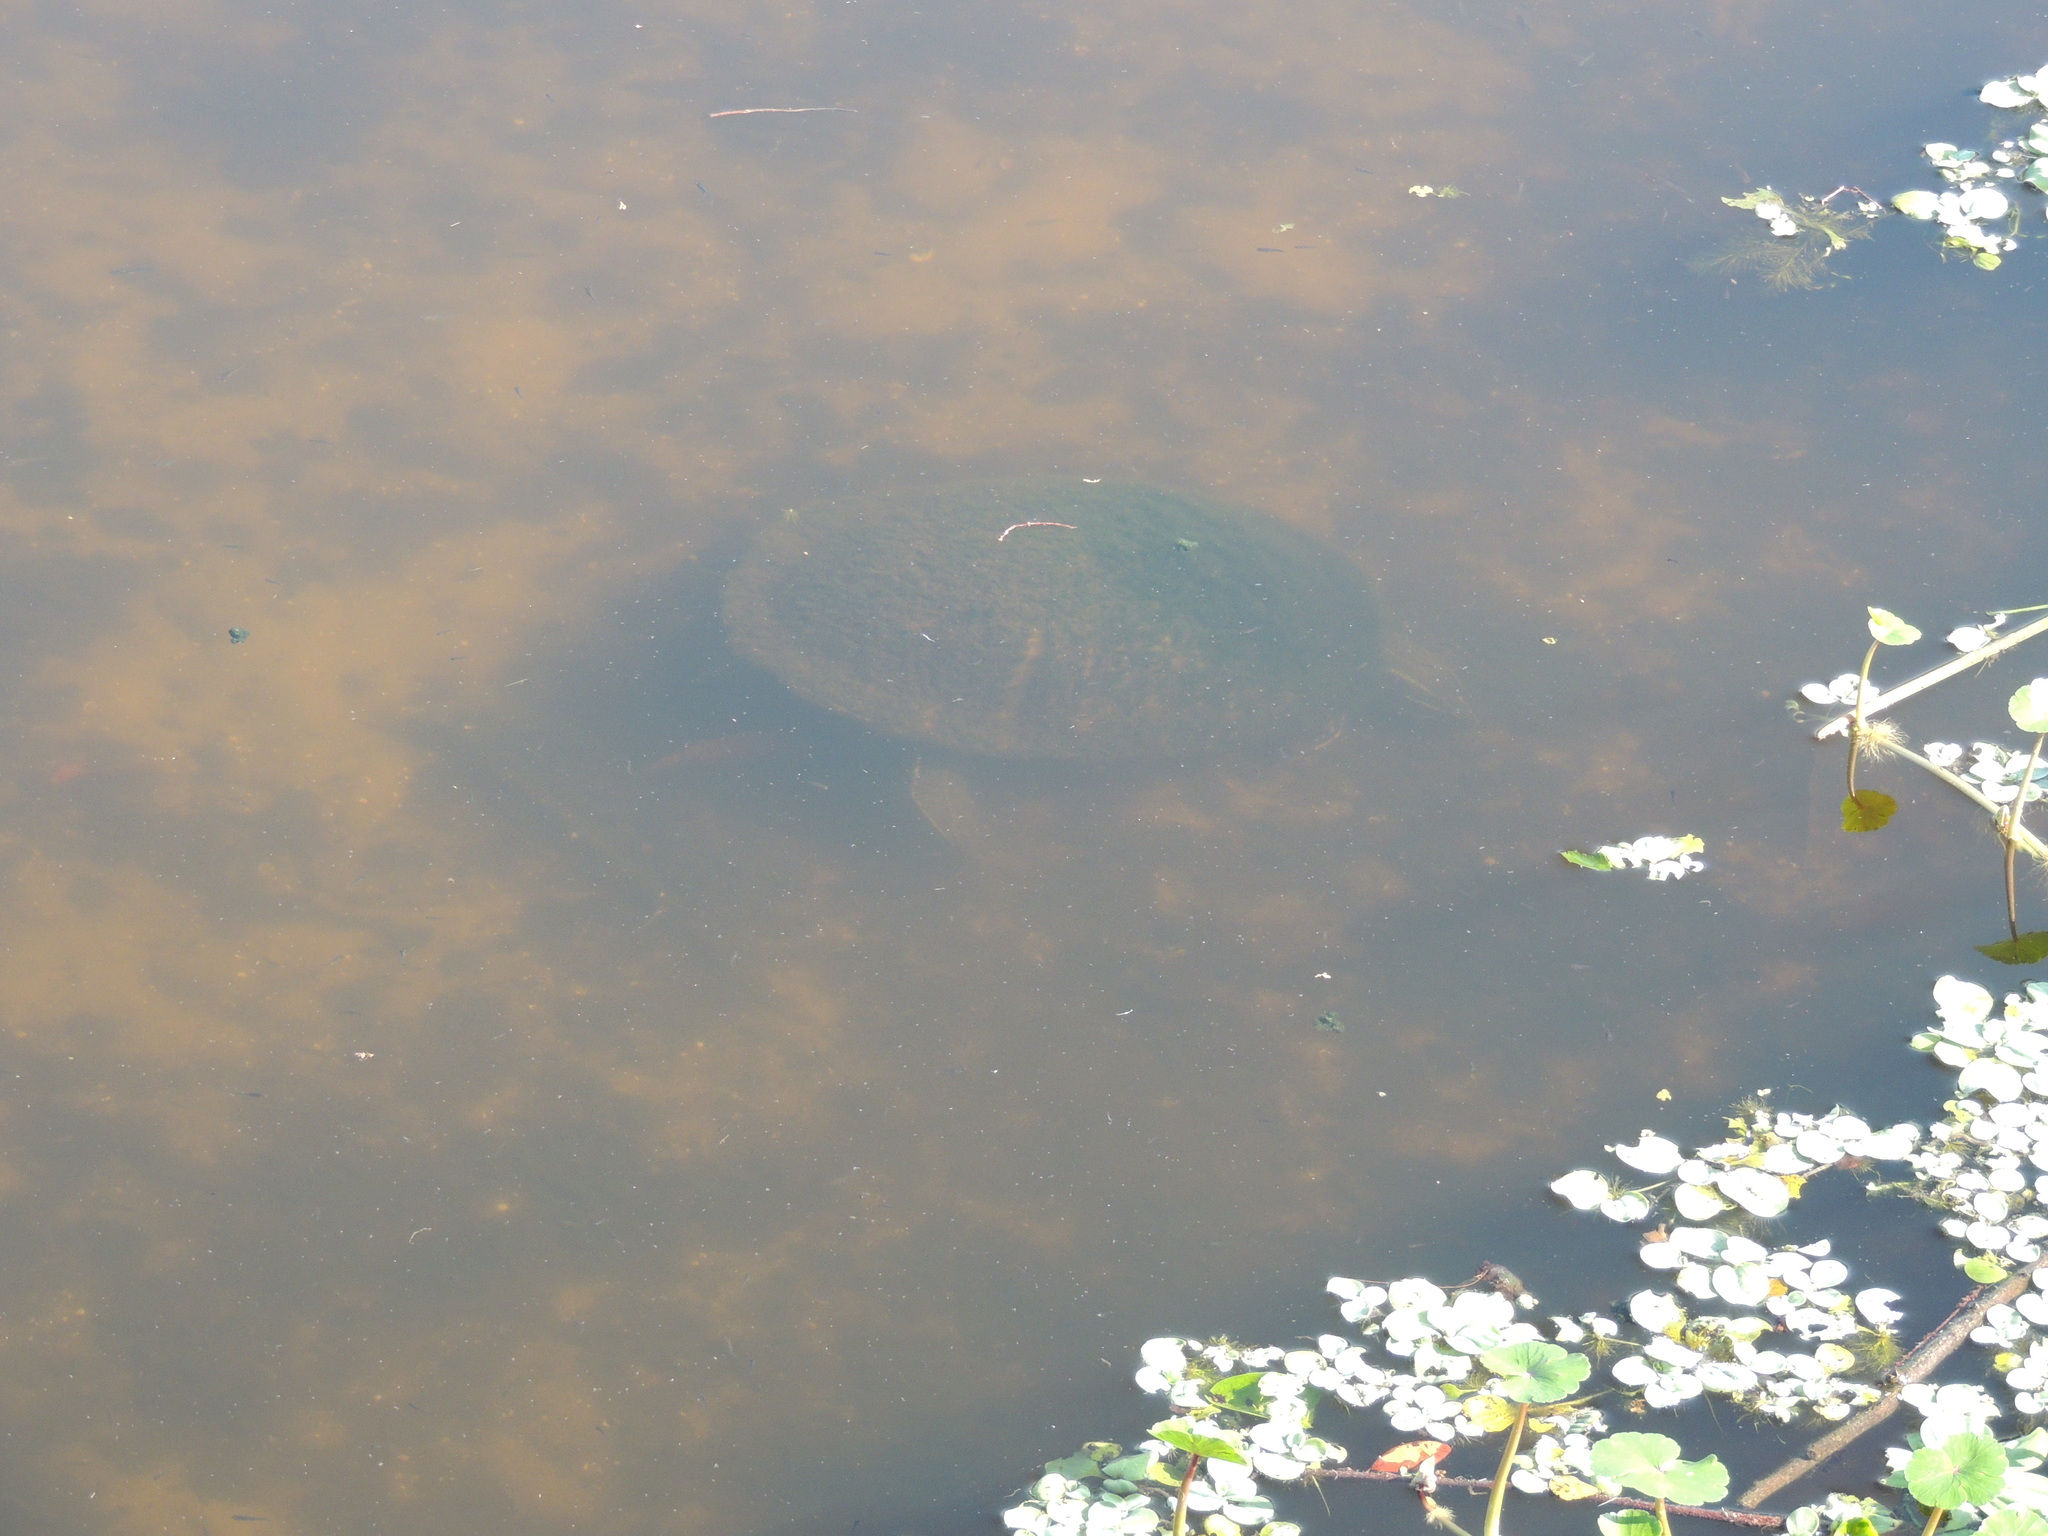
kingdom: Animalia
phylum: Chordata
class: Testudines
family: Trionychidae
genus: Apalone
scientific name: Apalone ferox
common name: Florida softshell turtle
